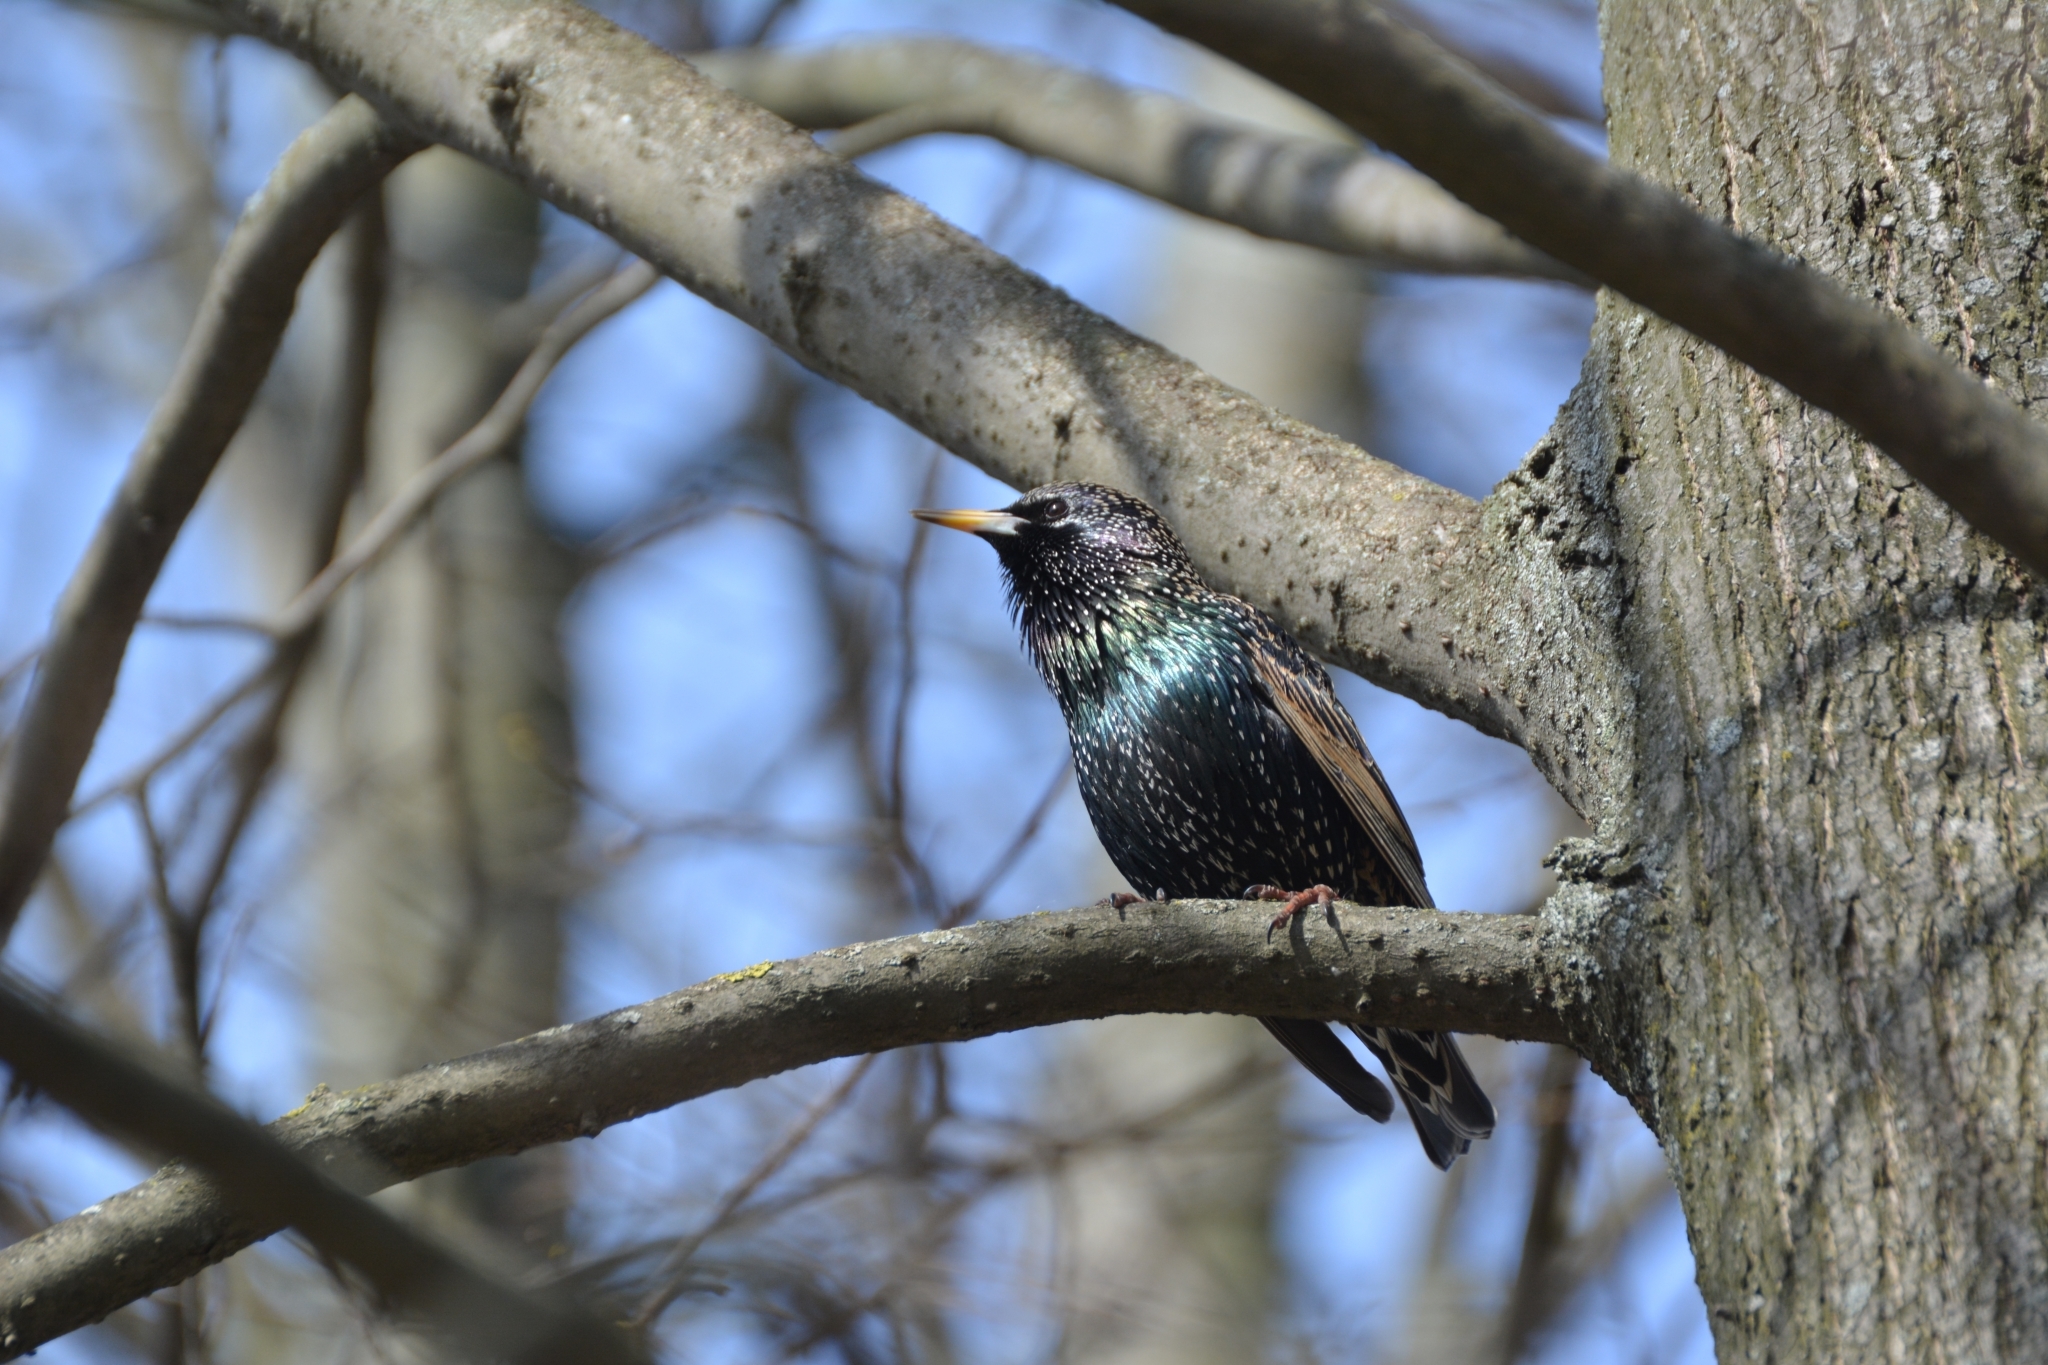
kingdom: Animalia
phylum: Chordata
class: Aves
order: Passeriformes
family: Sturnidae
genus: Sturnus
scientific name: Sturnus vulgaris
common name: Common starling
